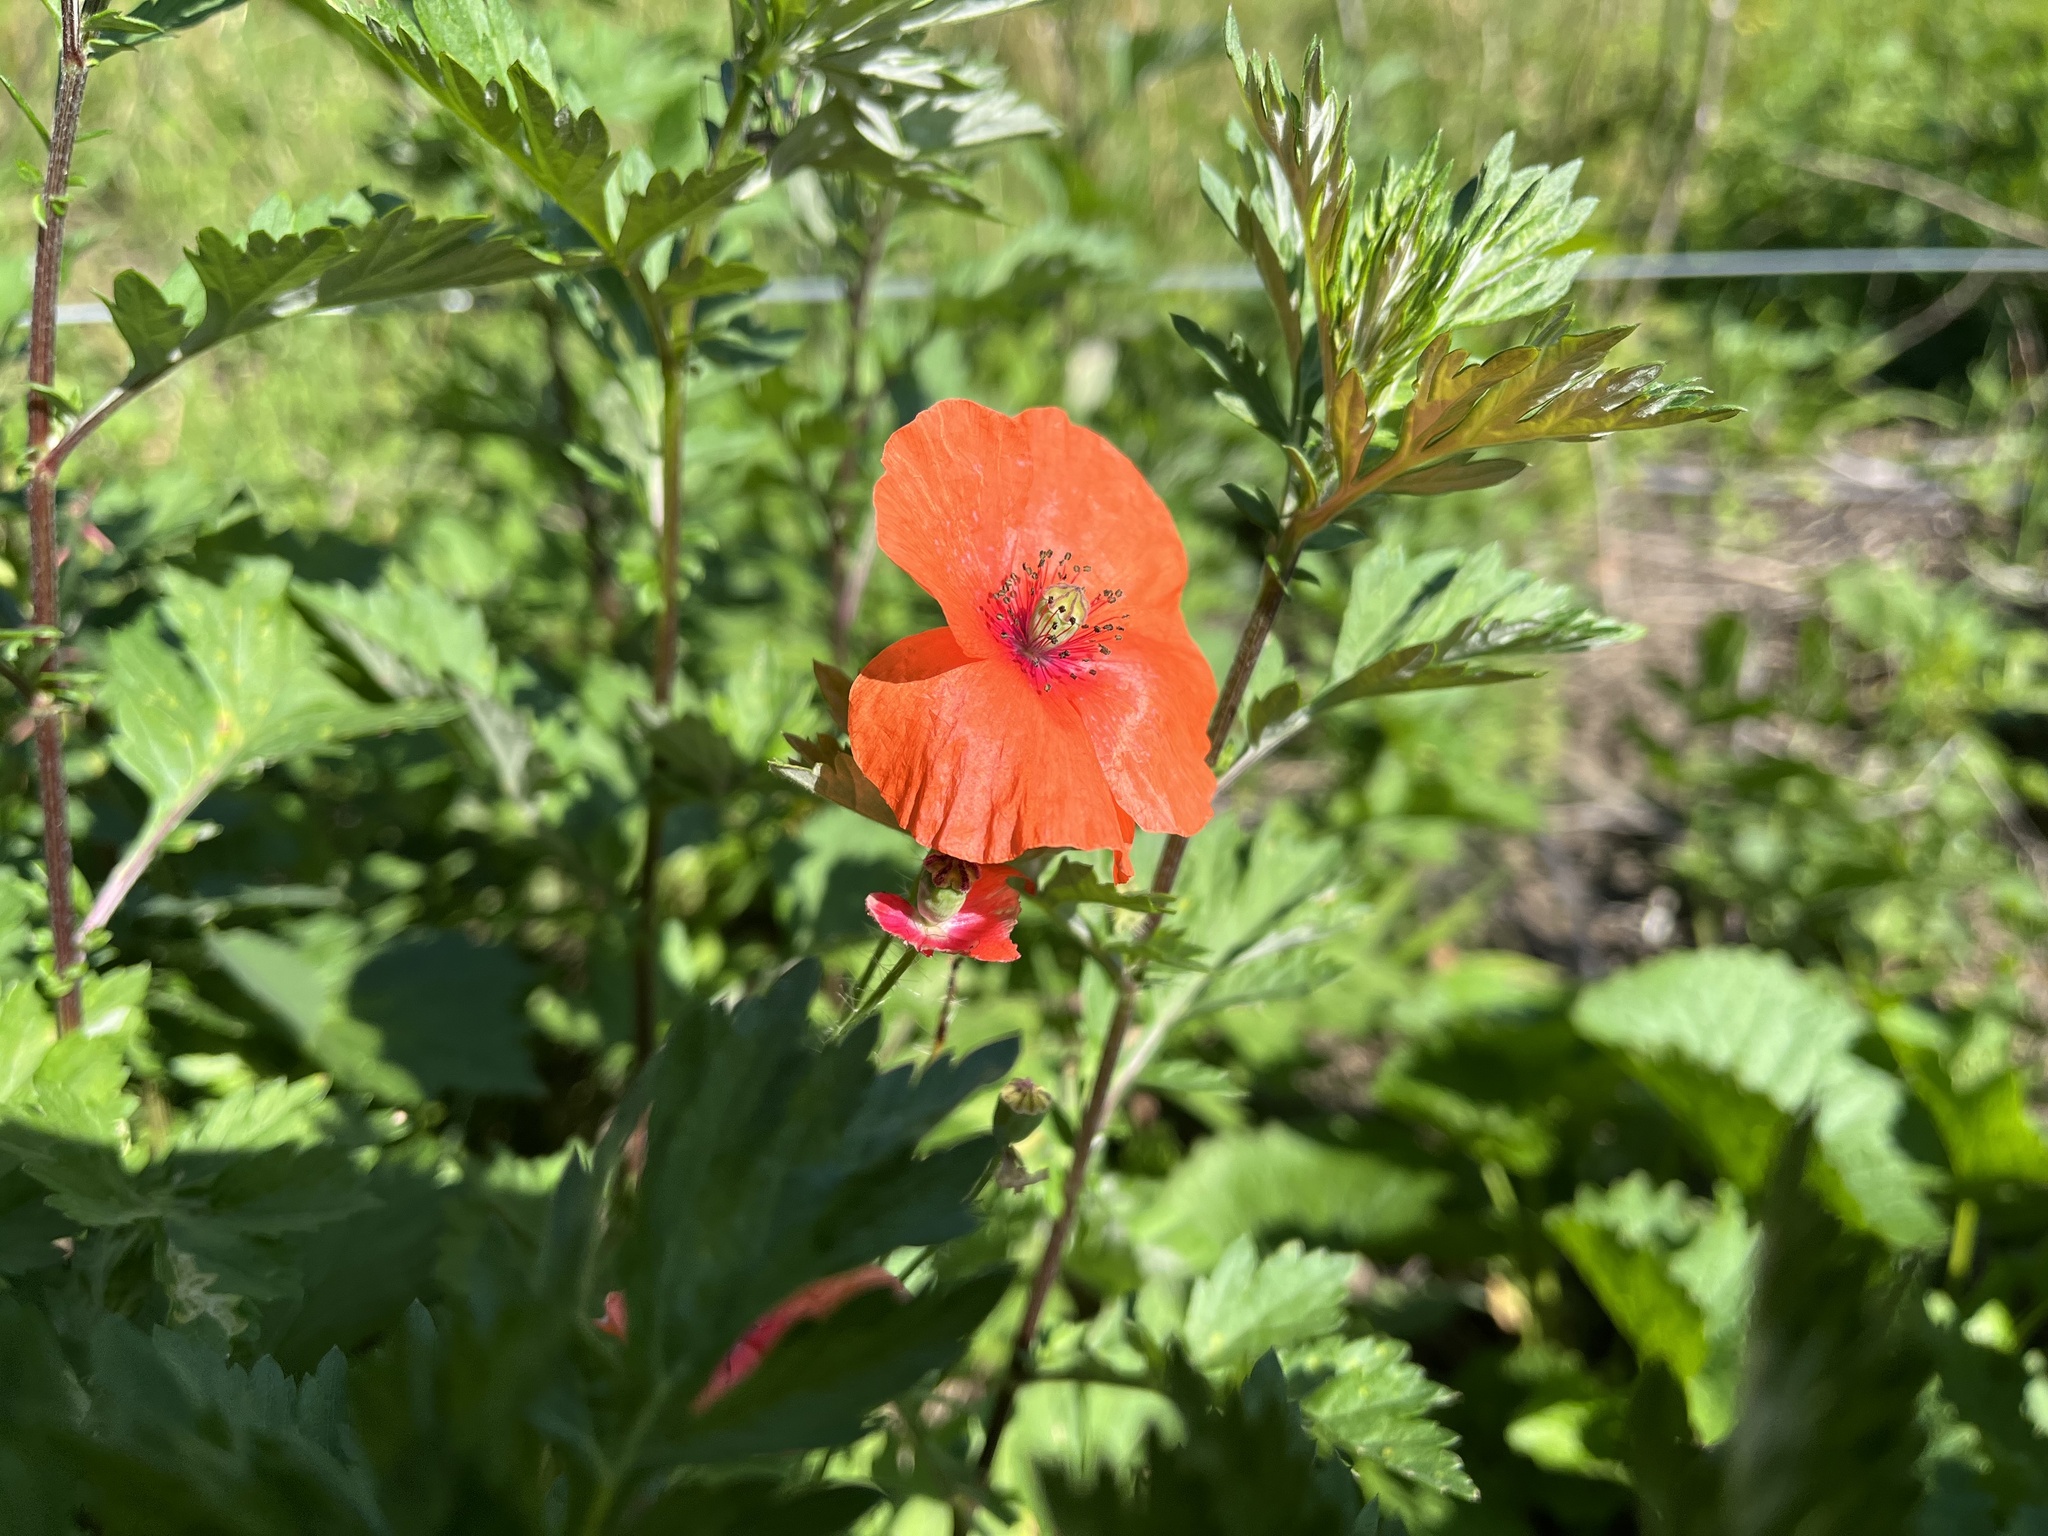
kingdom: Plantae
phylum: Tracheophyta
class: Magnoliopsida
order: Ranunculales
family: Papaveraceae
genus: Papaver
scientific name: Papaver rhoeas
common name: Corn poppy
